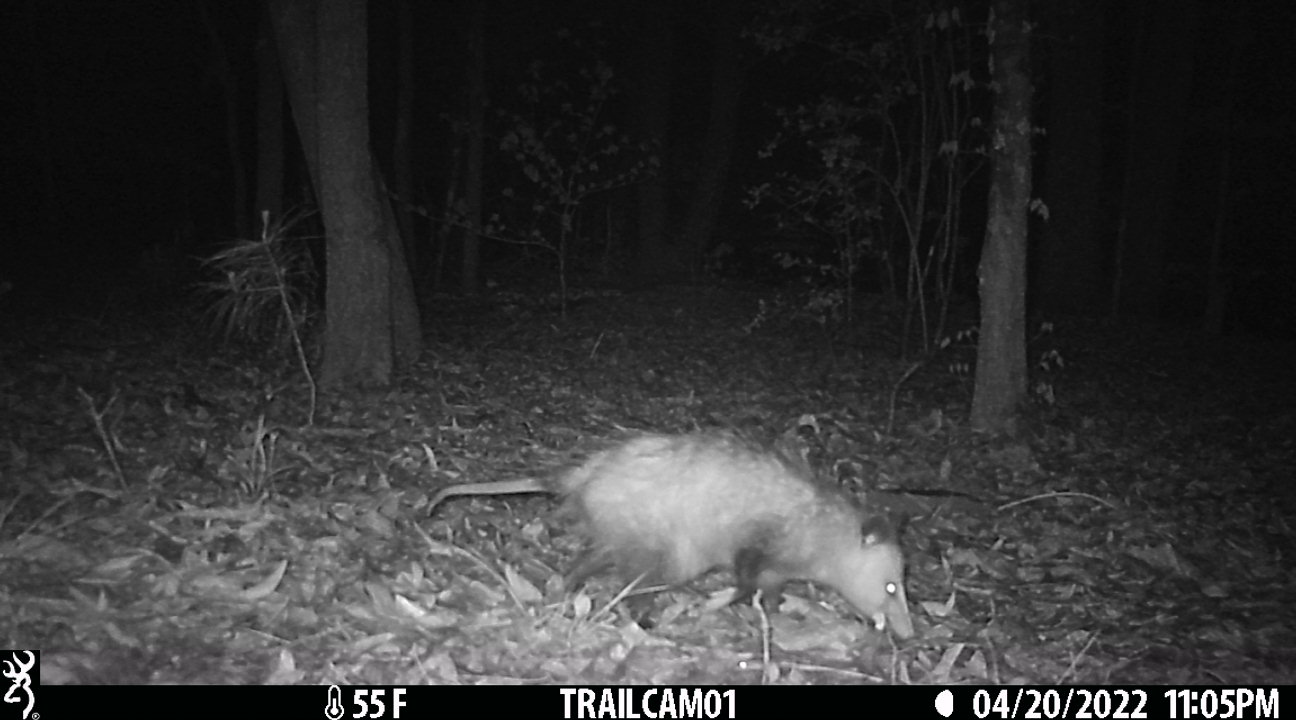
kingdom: Animalia
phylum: Chordata
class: Mammalia
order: Didelphimorphia
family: Didelphidae
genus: Didelphis
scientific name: Didelphis virginiana
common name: Virginia opossum
